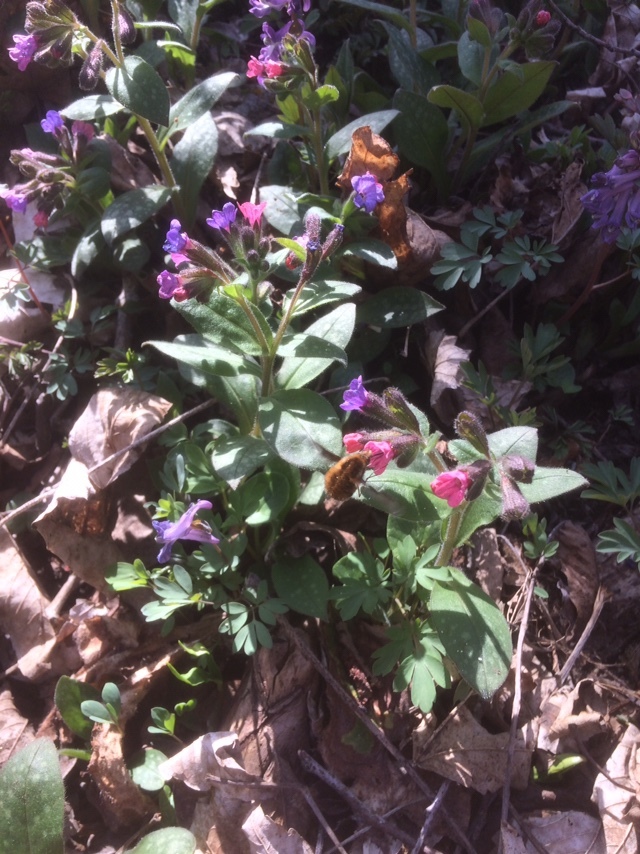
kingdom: Animalia
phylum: Arthropoda
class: Insecta
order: Diptera
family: Bombyliidae
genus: Bombylius
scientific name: Bombylius major
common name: Bee fly
